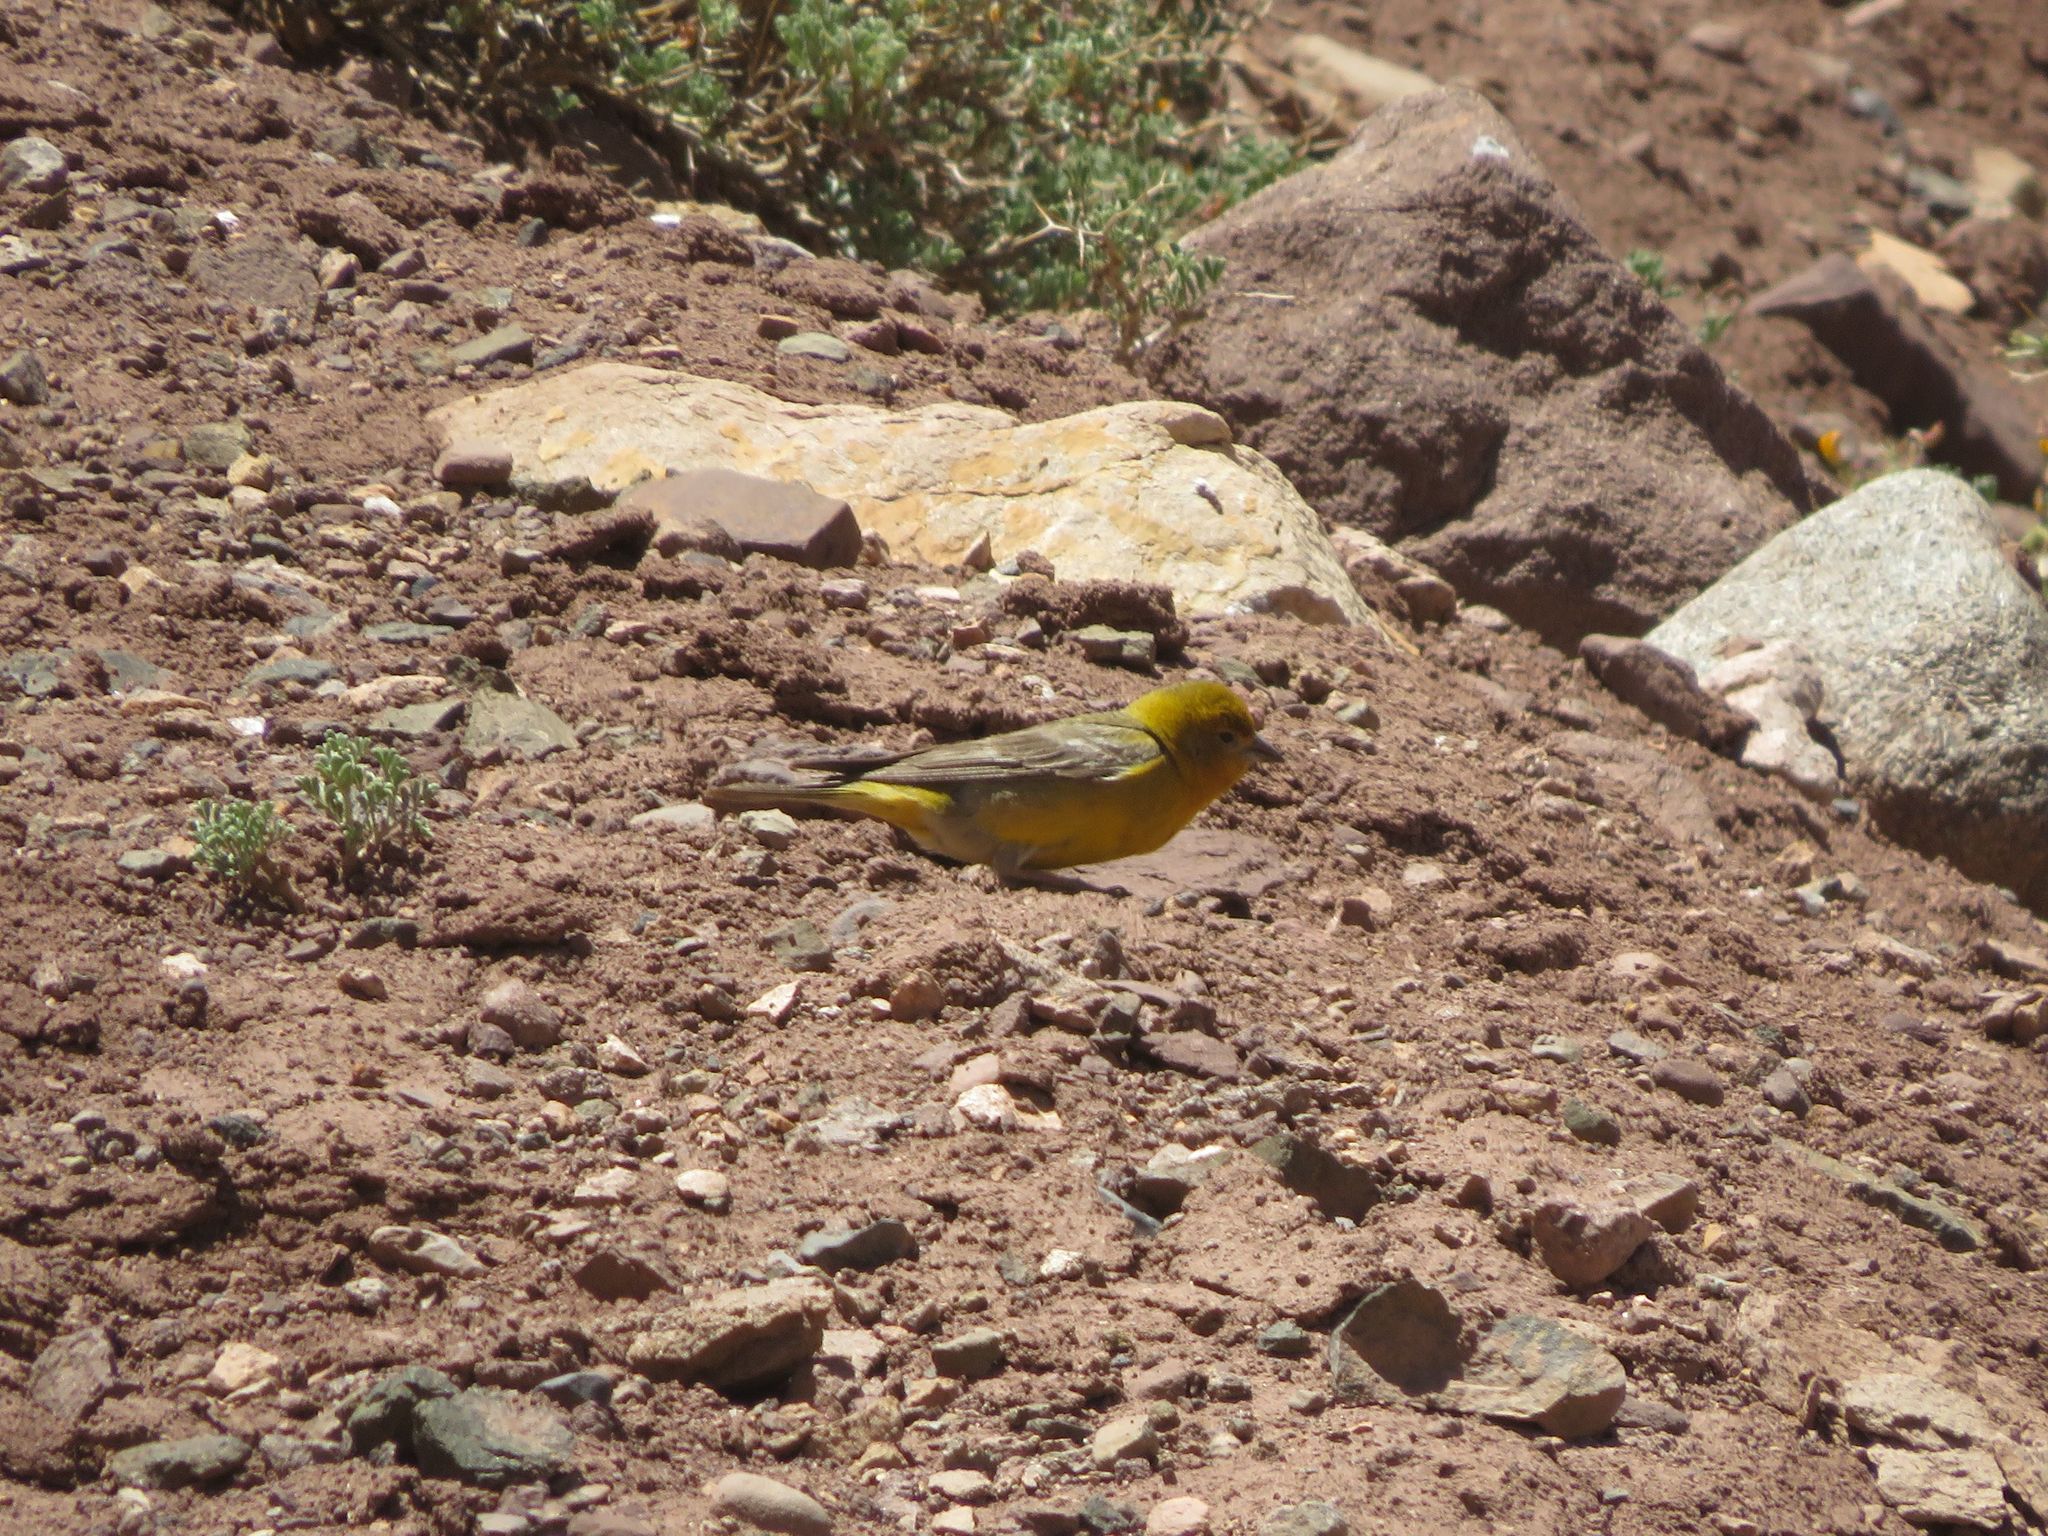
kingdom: Animalia
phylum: Chordata
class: Aves
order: Passeriformes
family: Thraupidae
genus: Sicalis
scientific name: Sicalis auriventris
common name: Greater yellow finch
